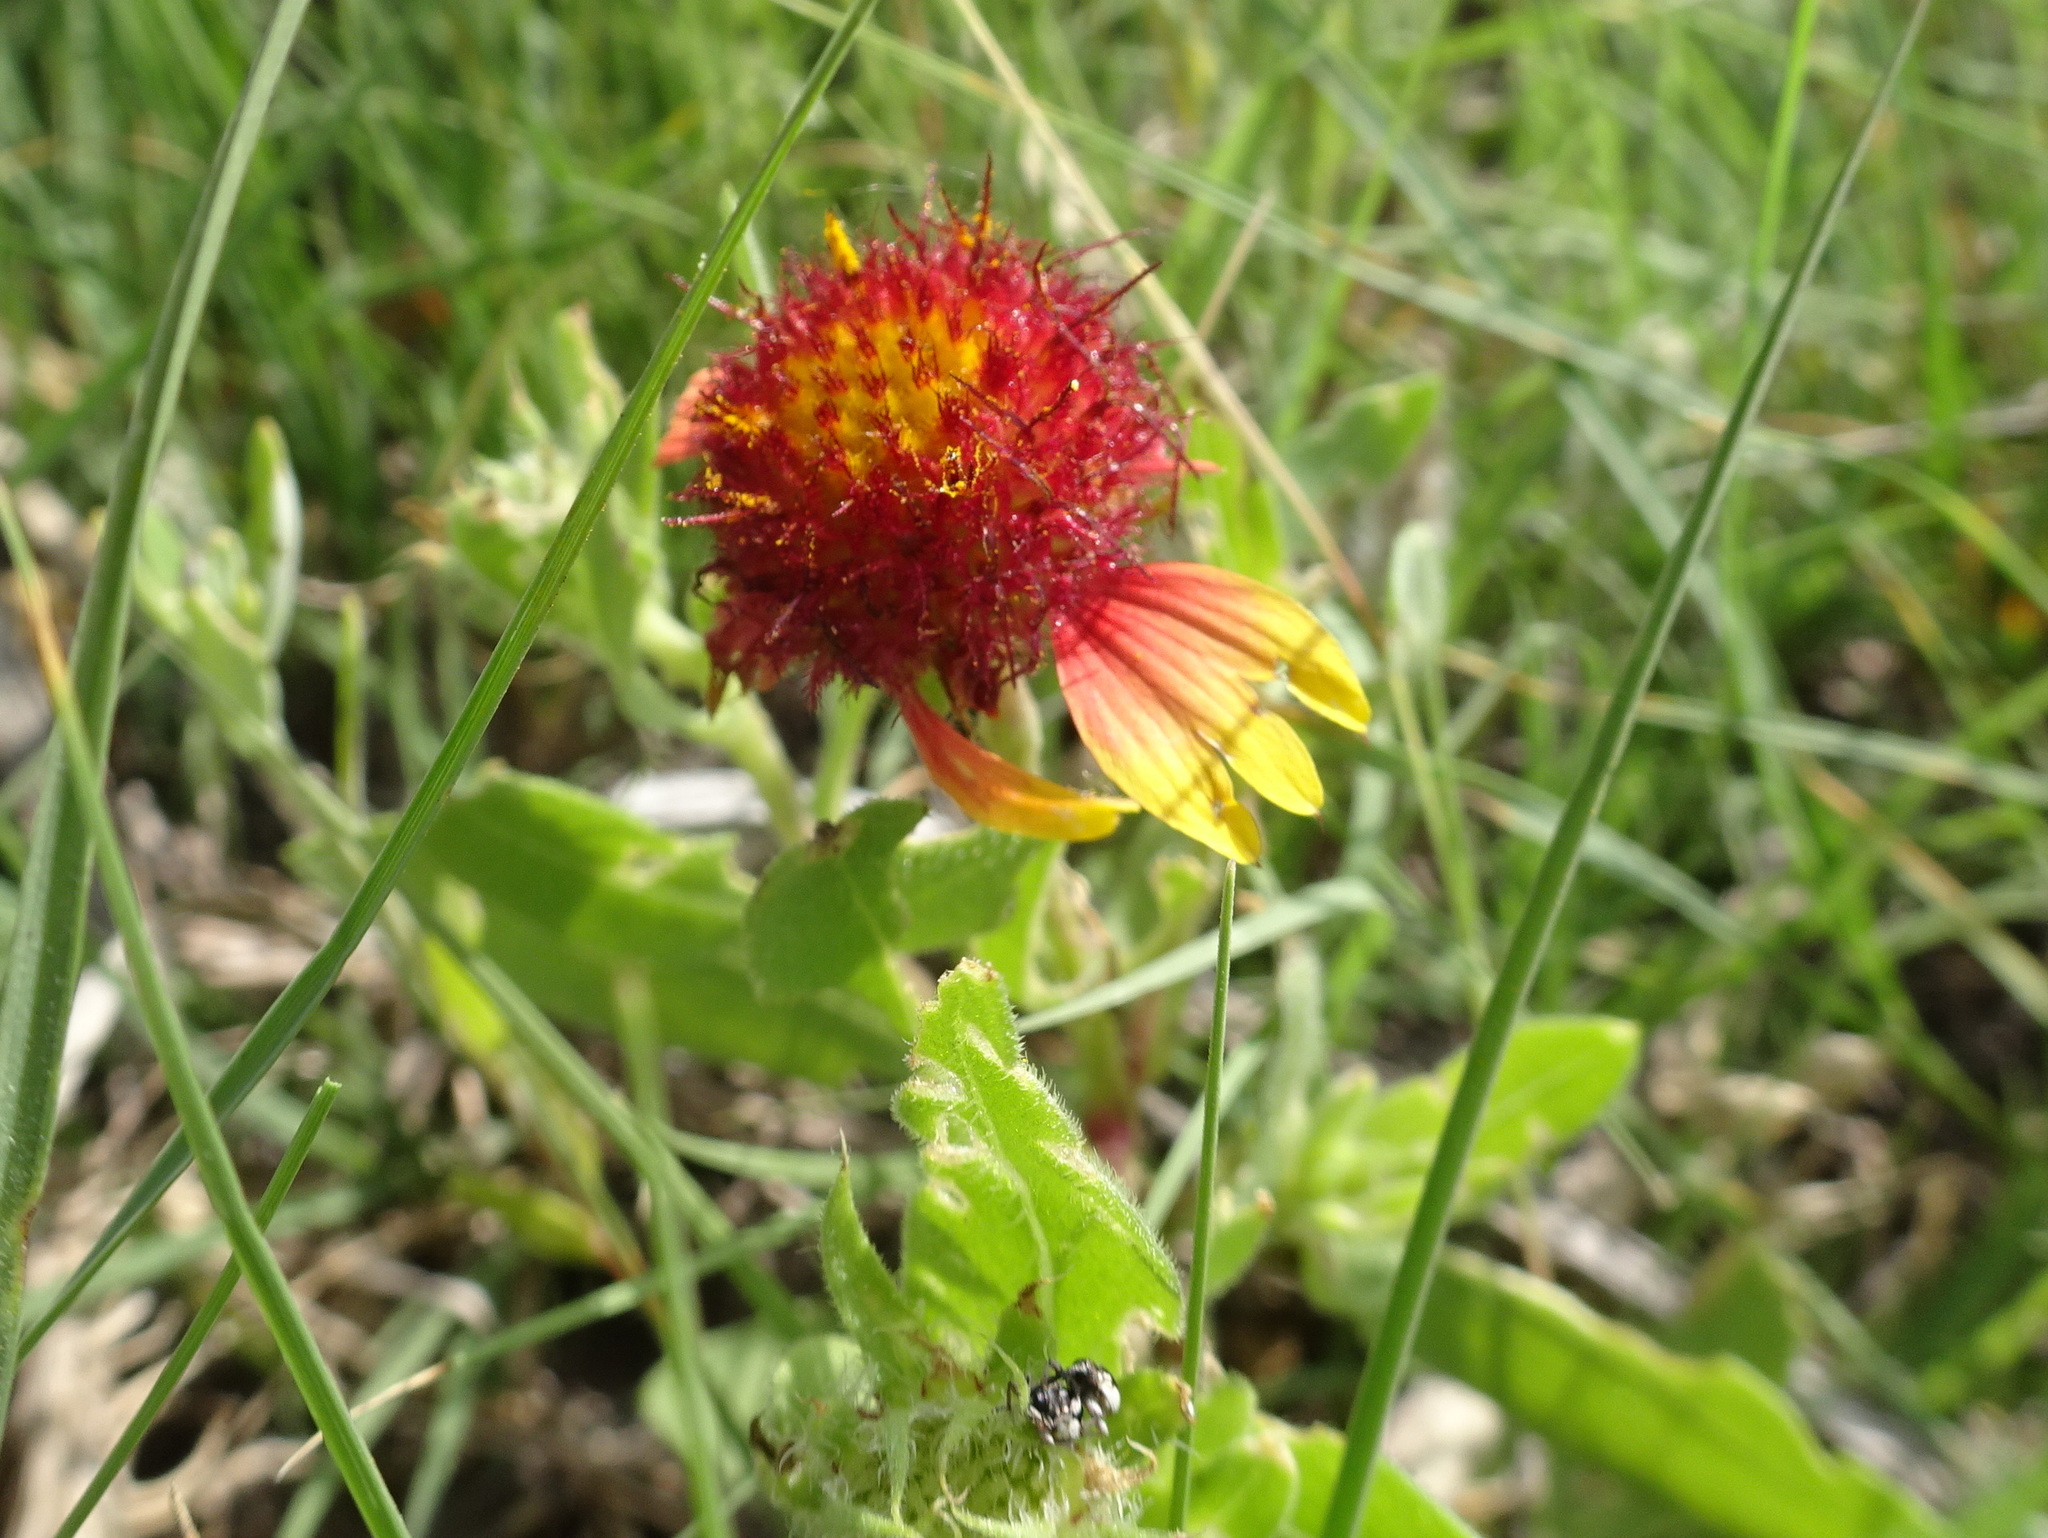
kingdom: Plantae
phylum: Tracheophyta
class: Magnoliopsida
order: Asterales
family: Asteraceae
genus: Gaillardia
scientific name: Gaillardia pulchella
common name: Firewheel
